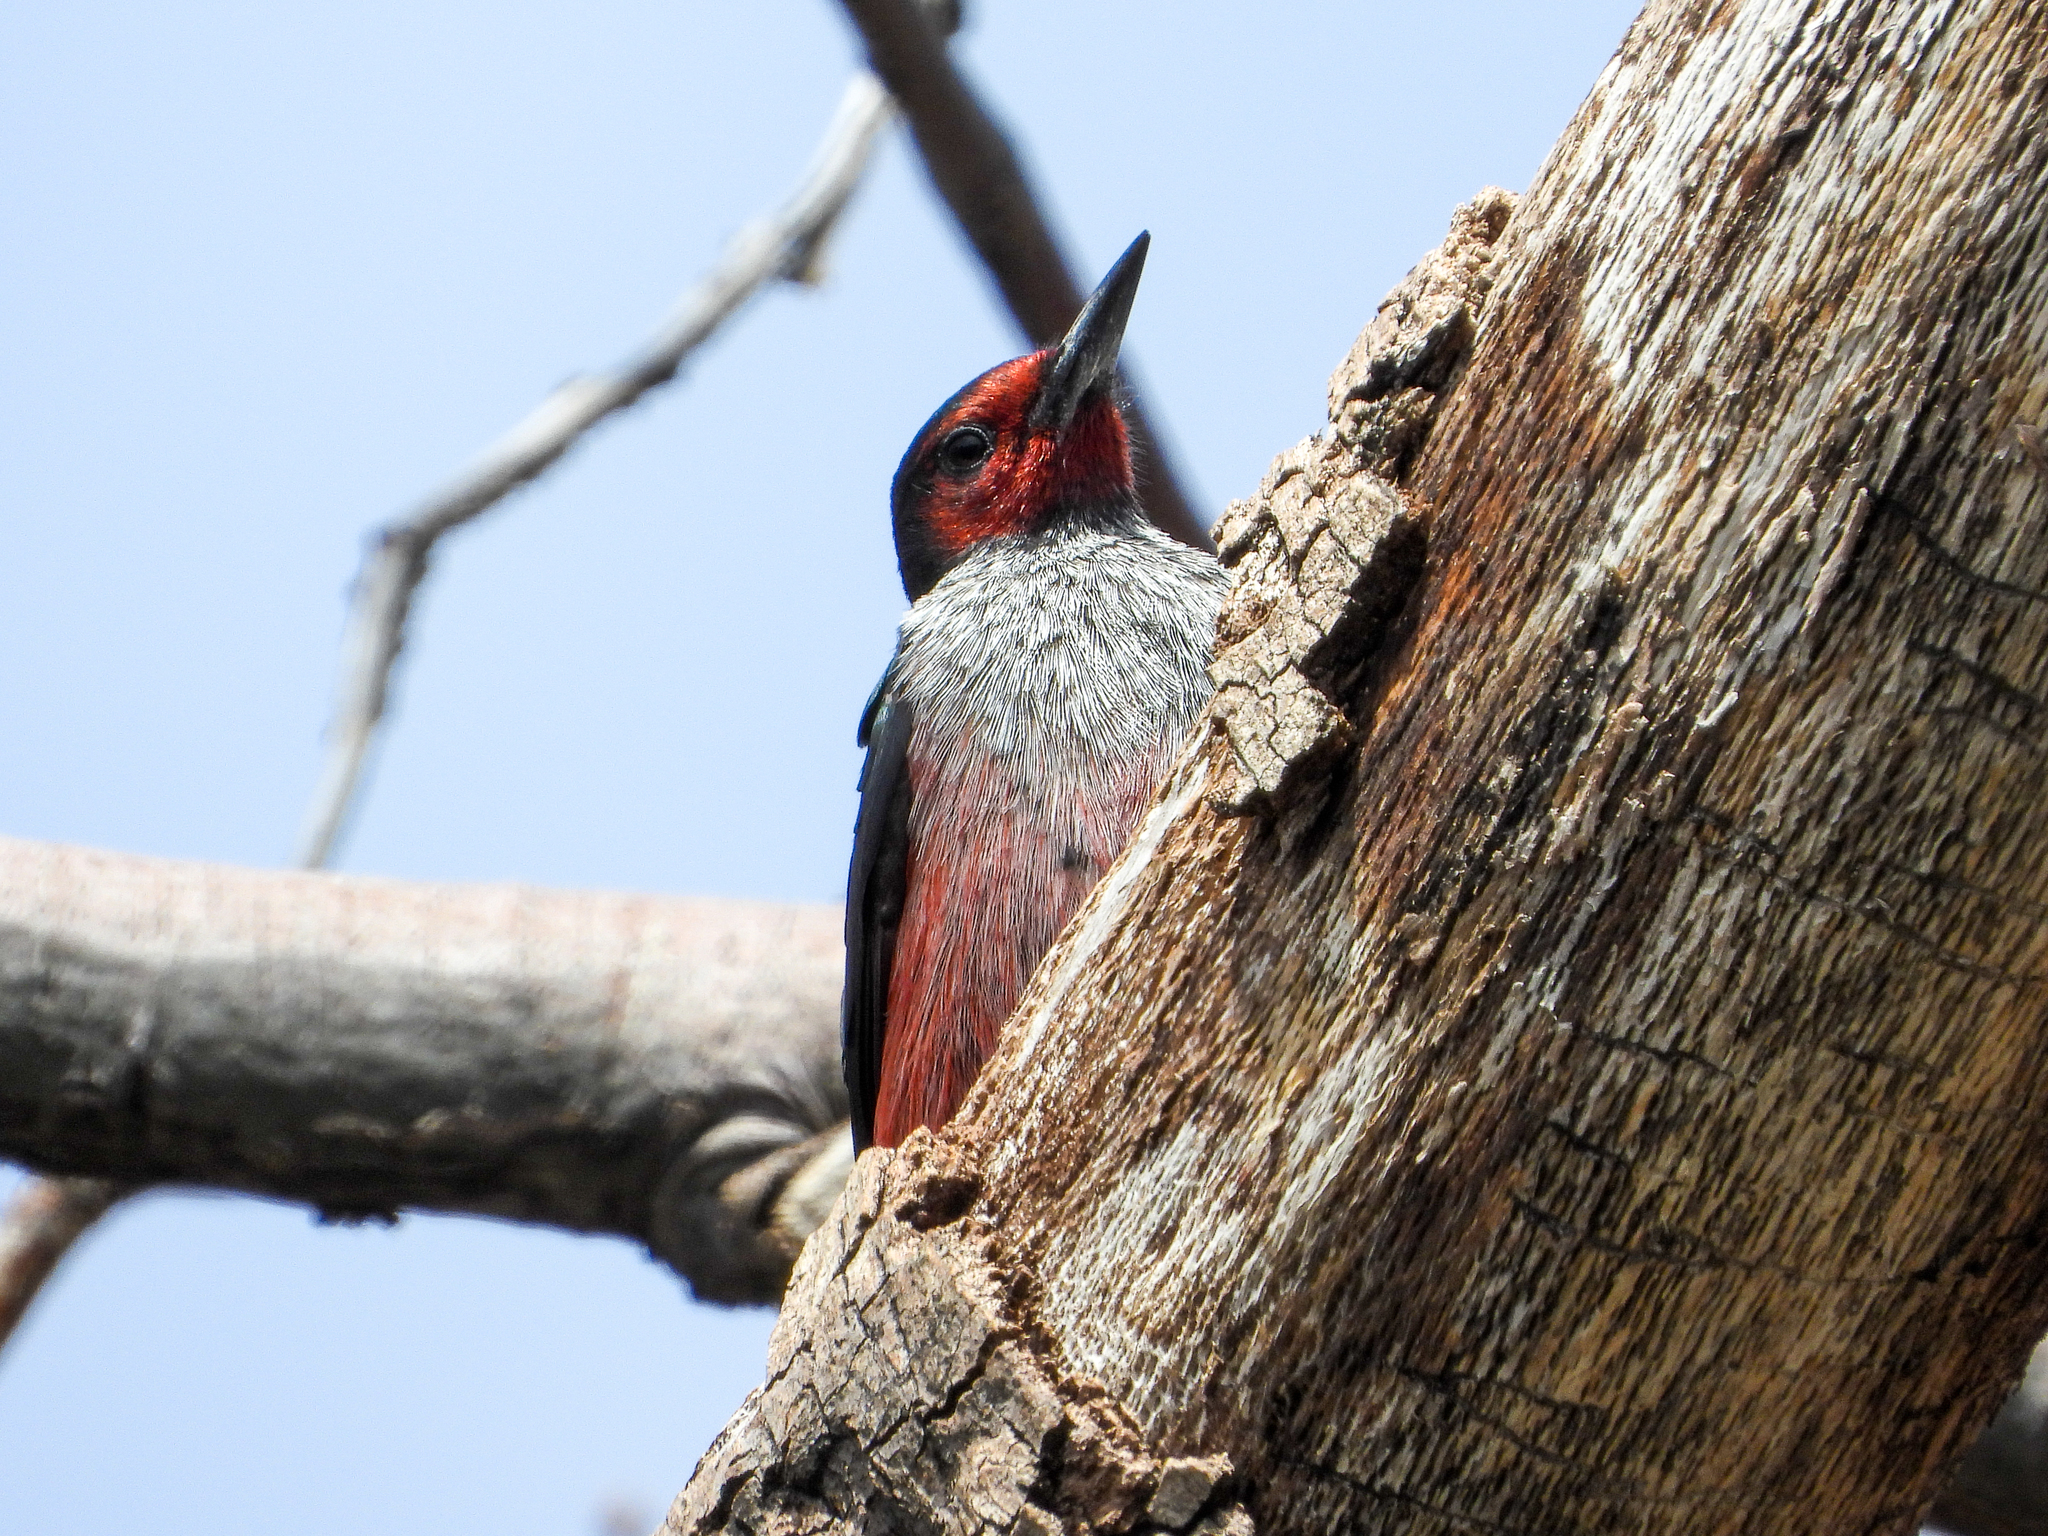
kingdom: Animalia
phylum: Chordata
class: Aves
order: Piciformes
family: Picidae
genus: Melanerpes
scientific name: Melanerpes lewis
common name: Lewis's woodpecker
